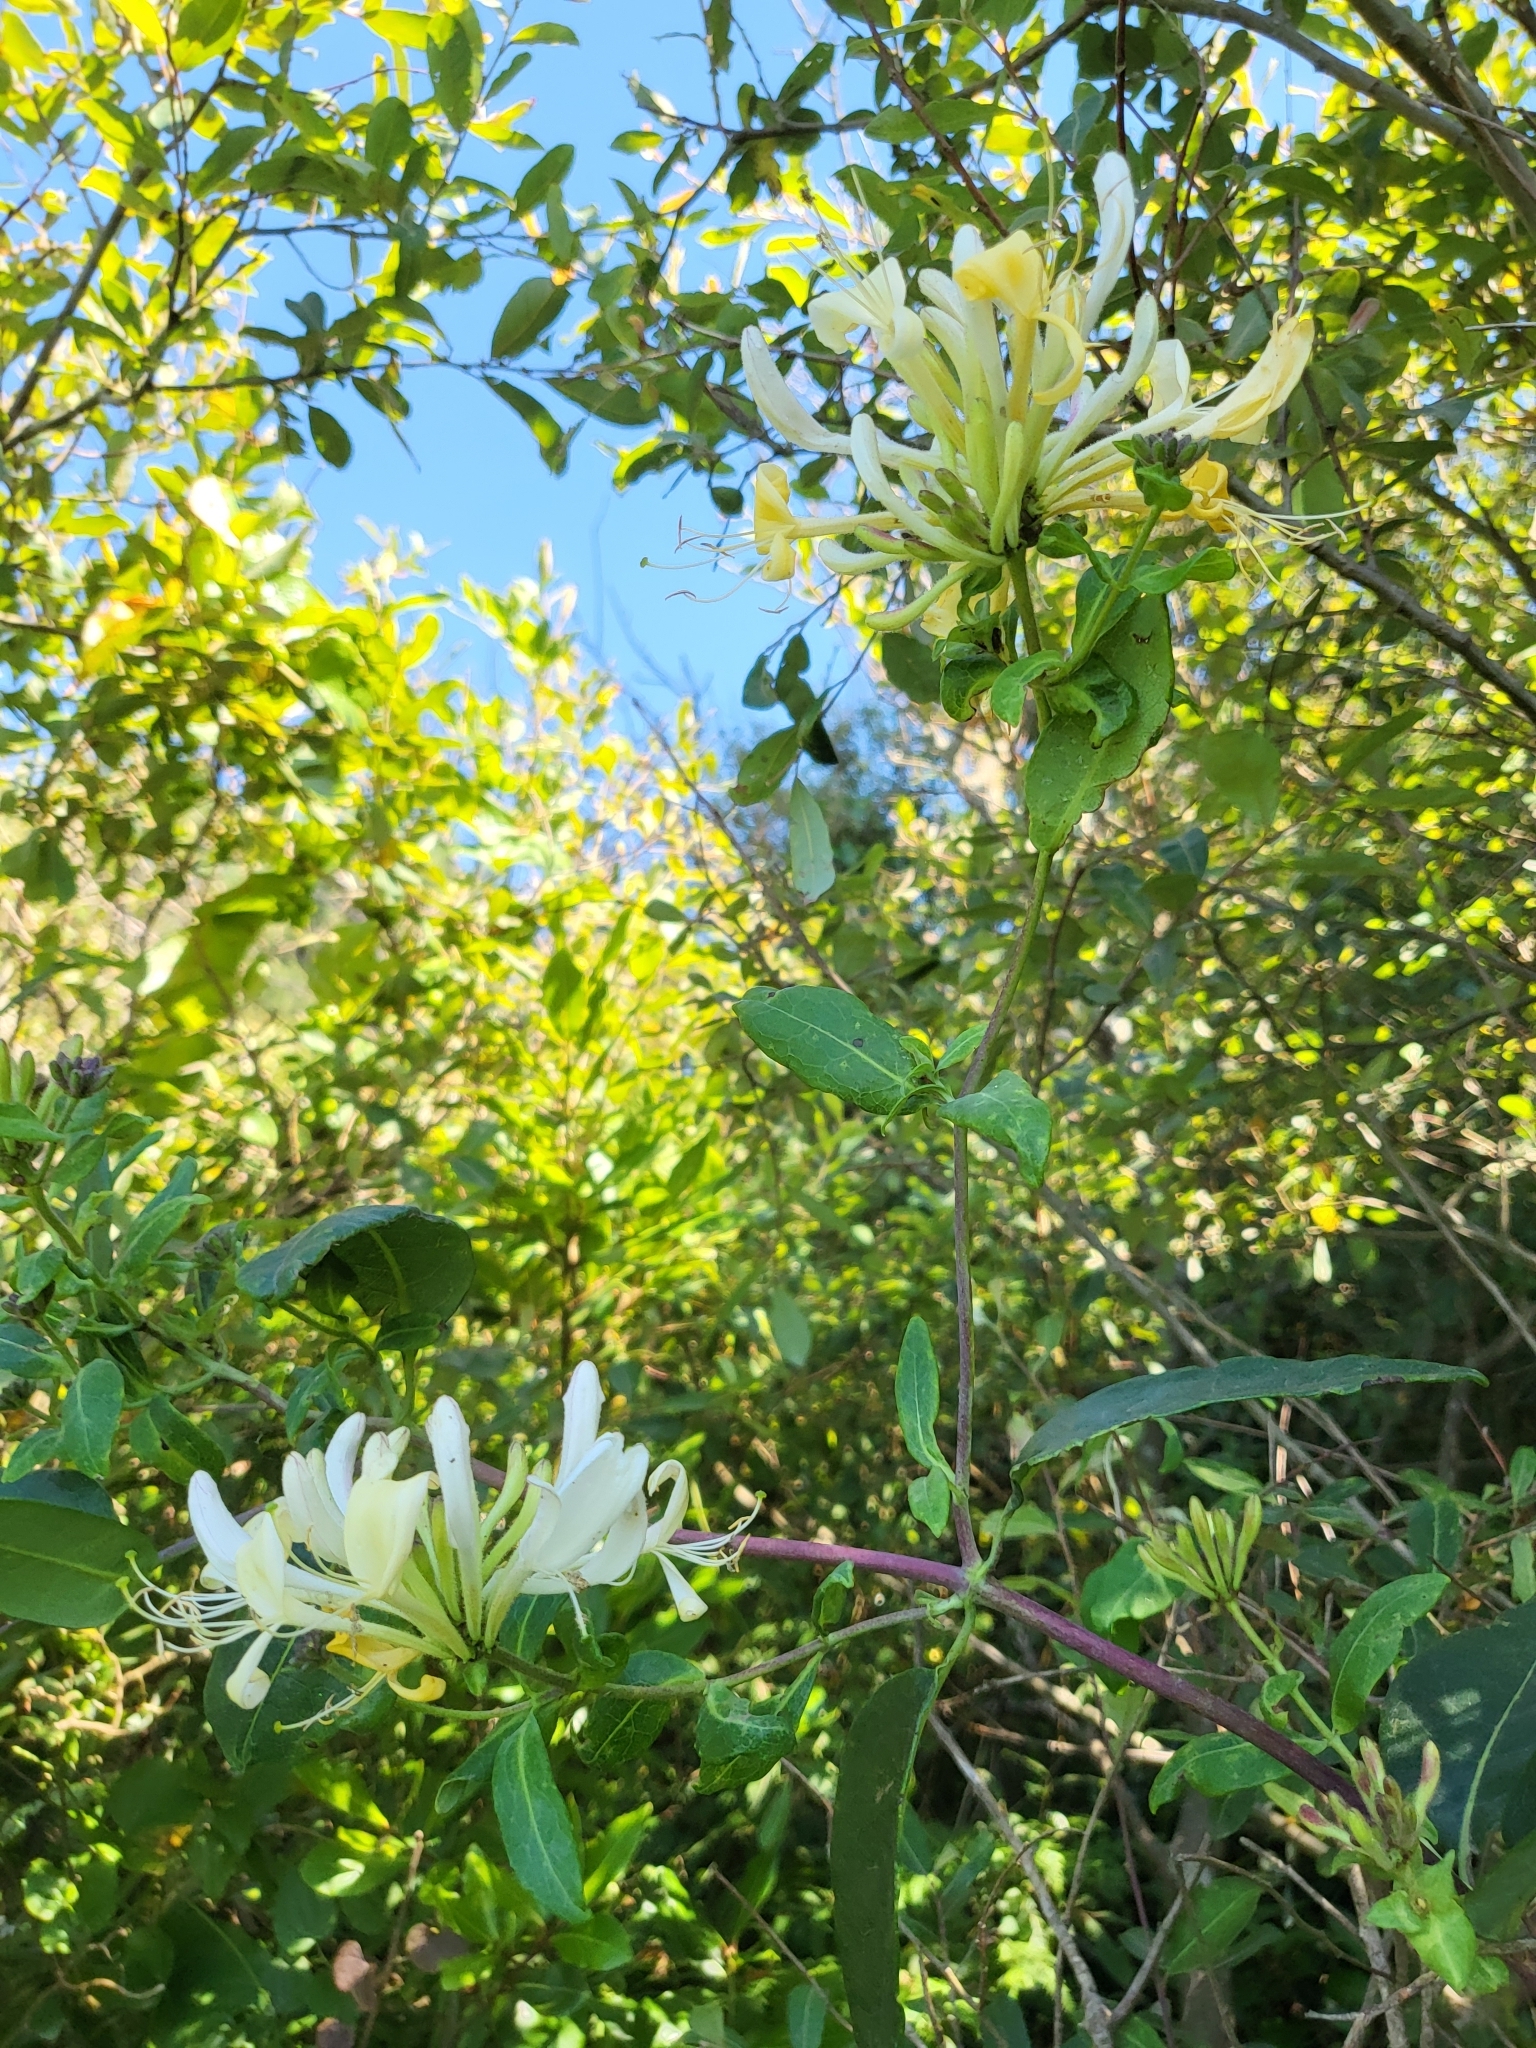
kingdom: Plantae
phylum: Tracheophyta
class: Magnoliopsida
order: Dipsacales
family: Caprifoliaceae
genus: Lonicera
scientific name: Lonicera periclymenum
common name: European honeysuckle
